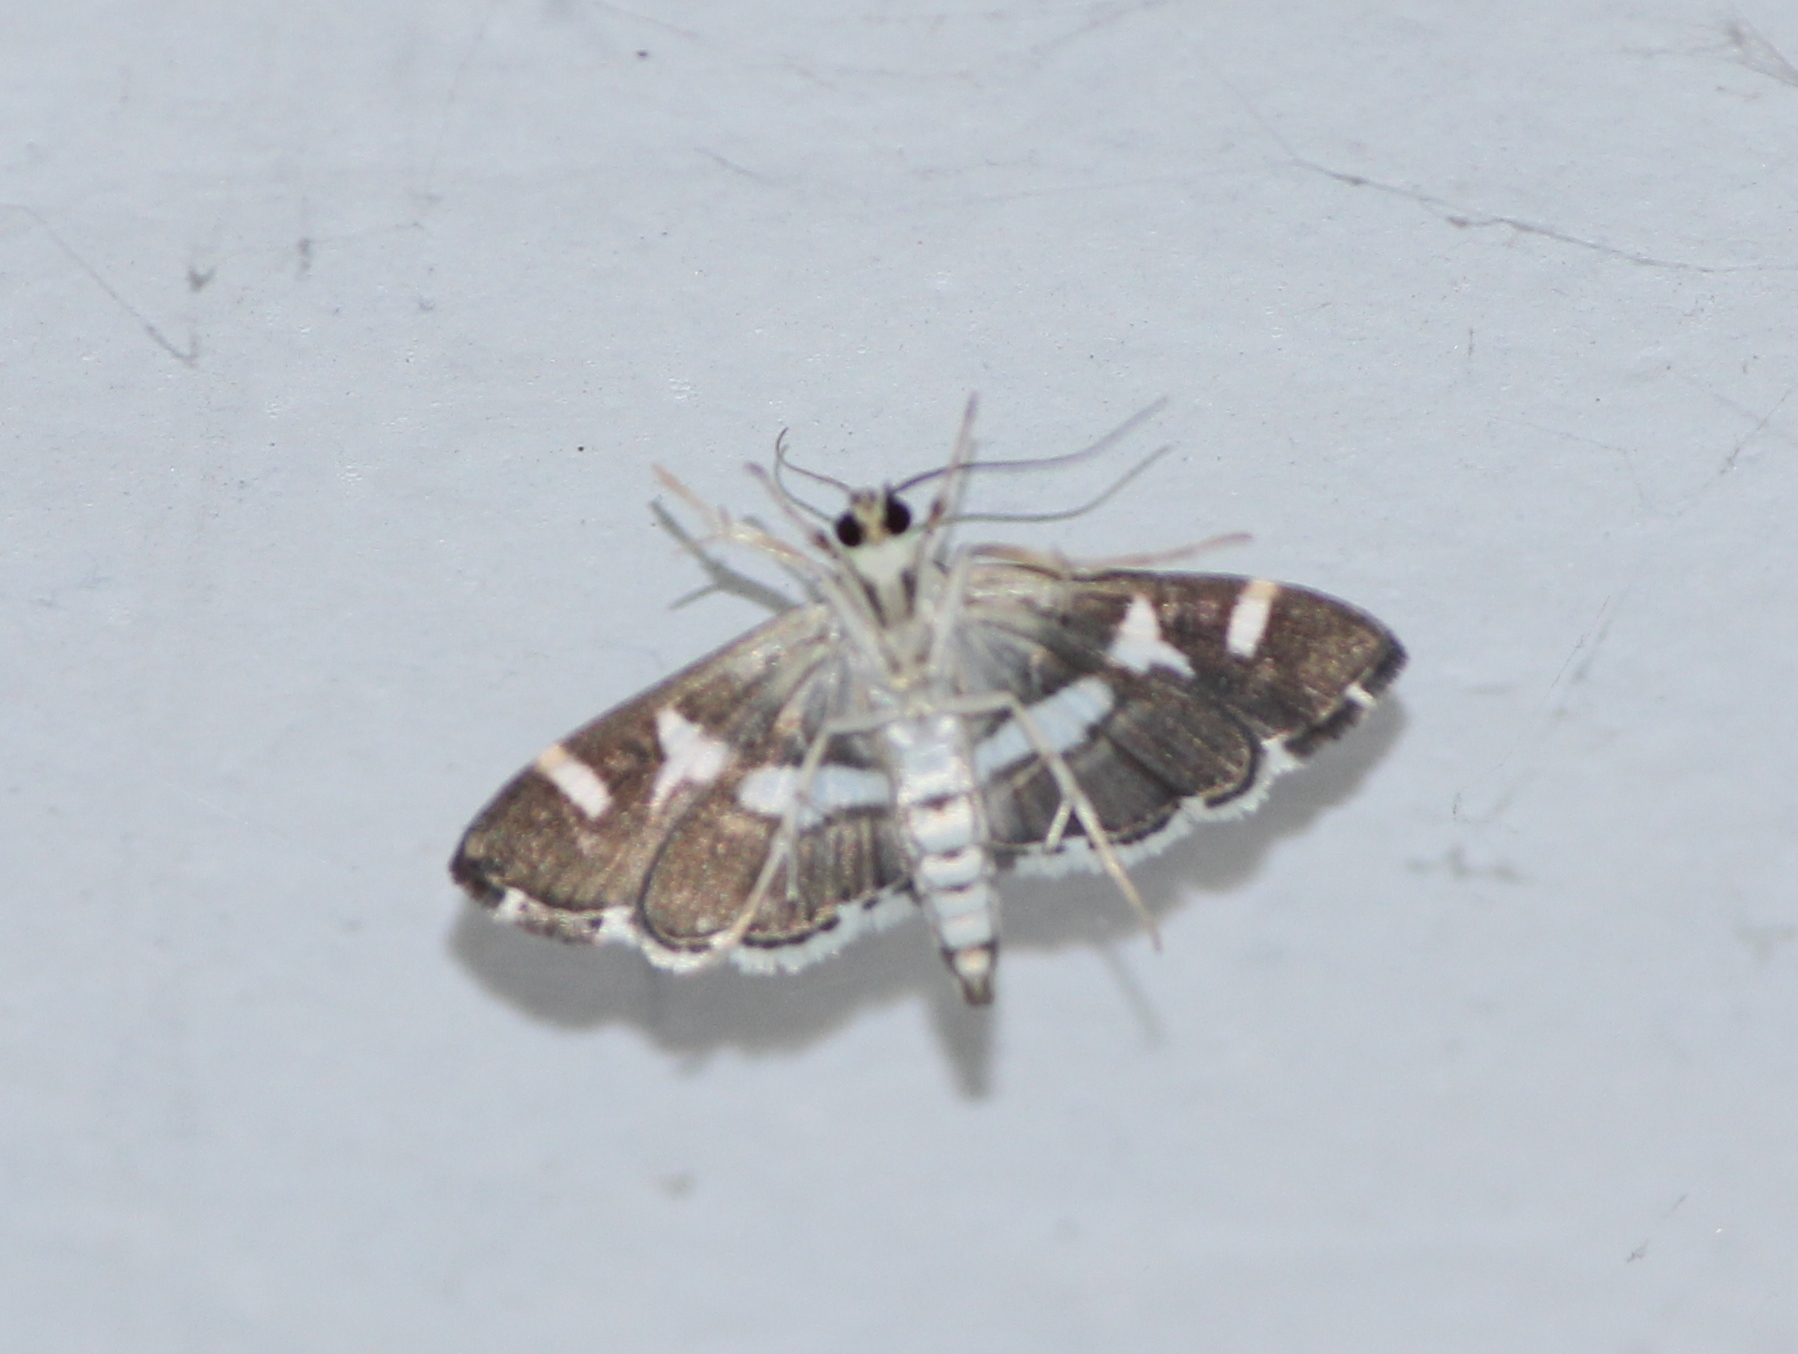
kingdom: Animalia
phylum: Arthropoda
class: Insecta
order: Lepidoptera
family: Crambidae
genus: Spoladea
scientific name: Spoladea recurvalis
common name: Beet webworm moth
